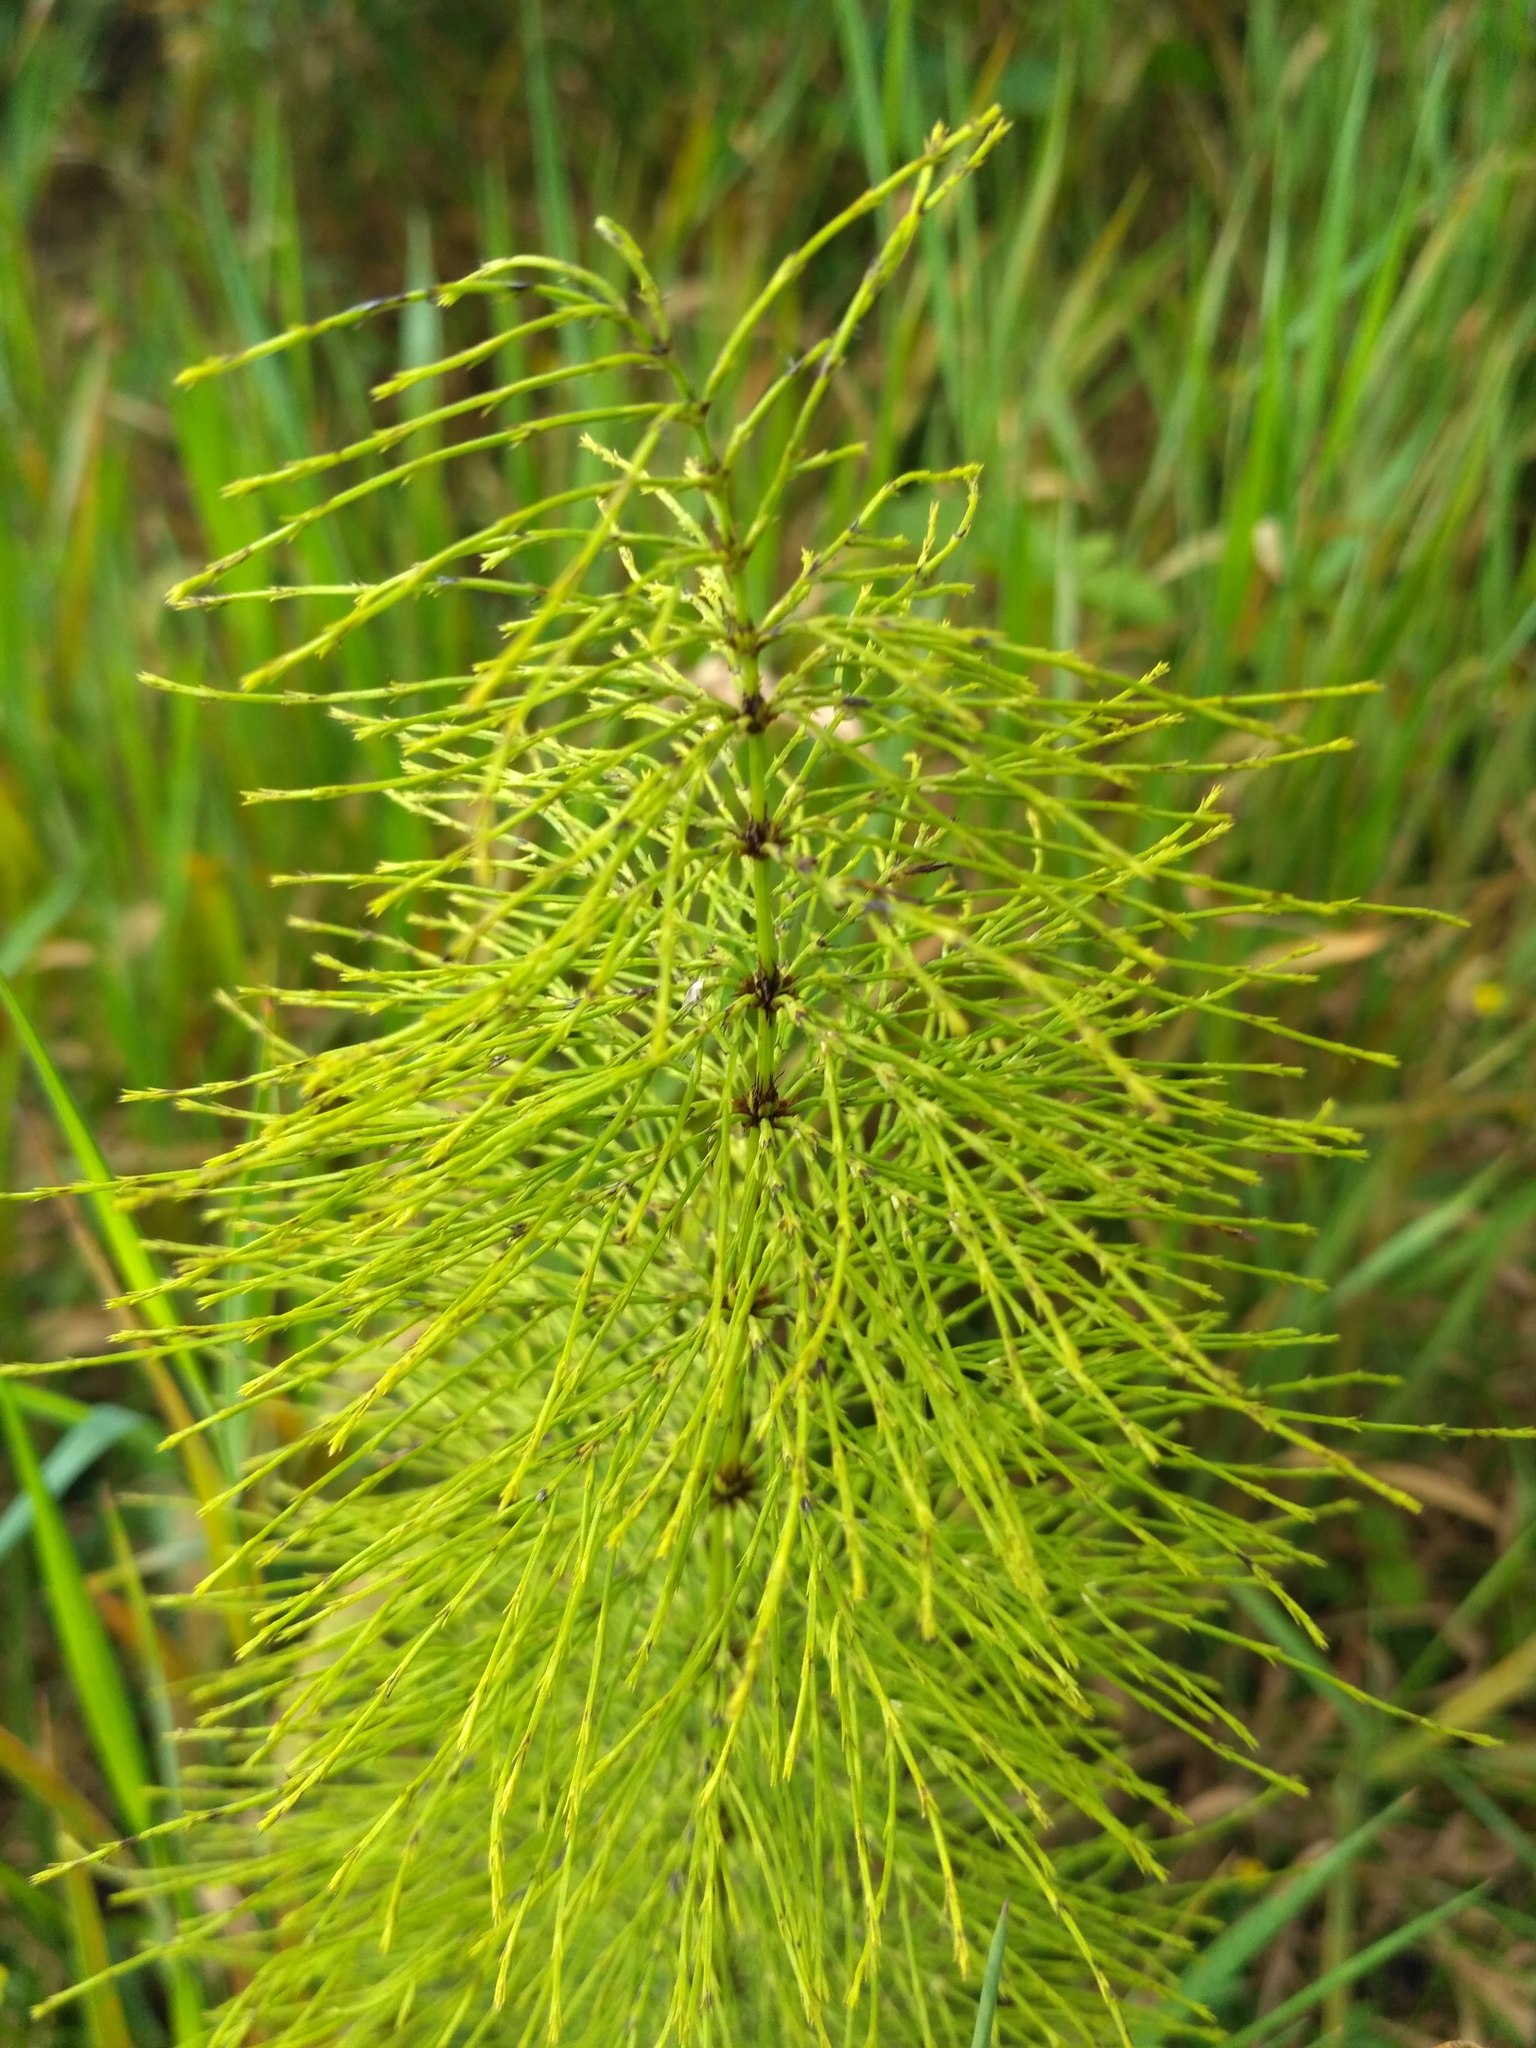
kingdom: Plantae
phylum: Tracheophyta
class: Polypodiopsida
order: Equisetales
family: Equisetaceae
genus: Equisetum
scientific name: Equisetum sylvaticum
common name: Wood horsetail
